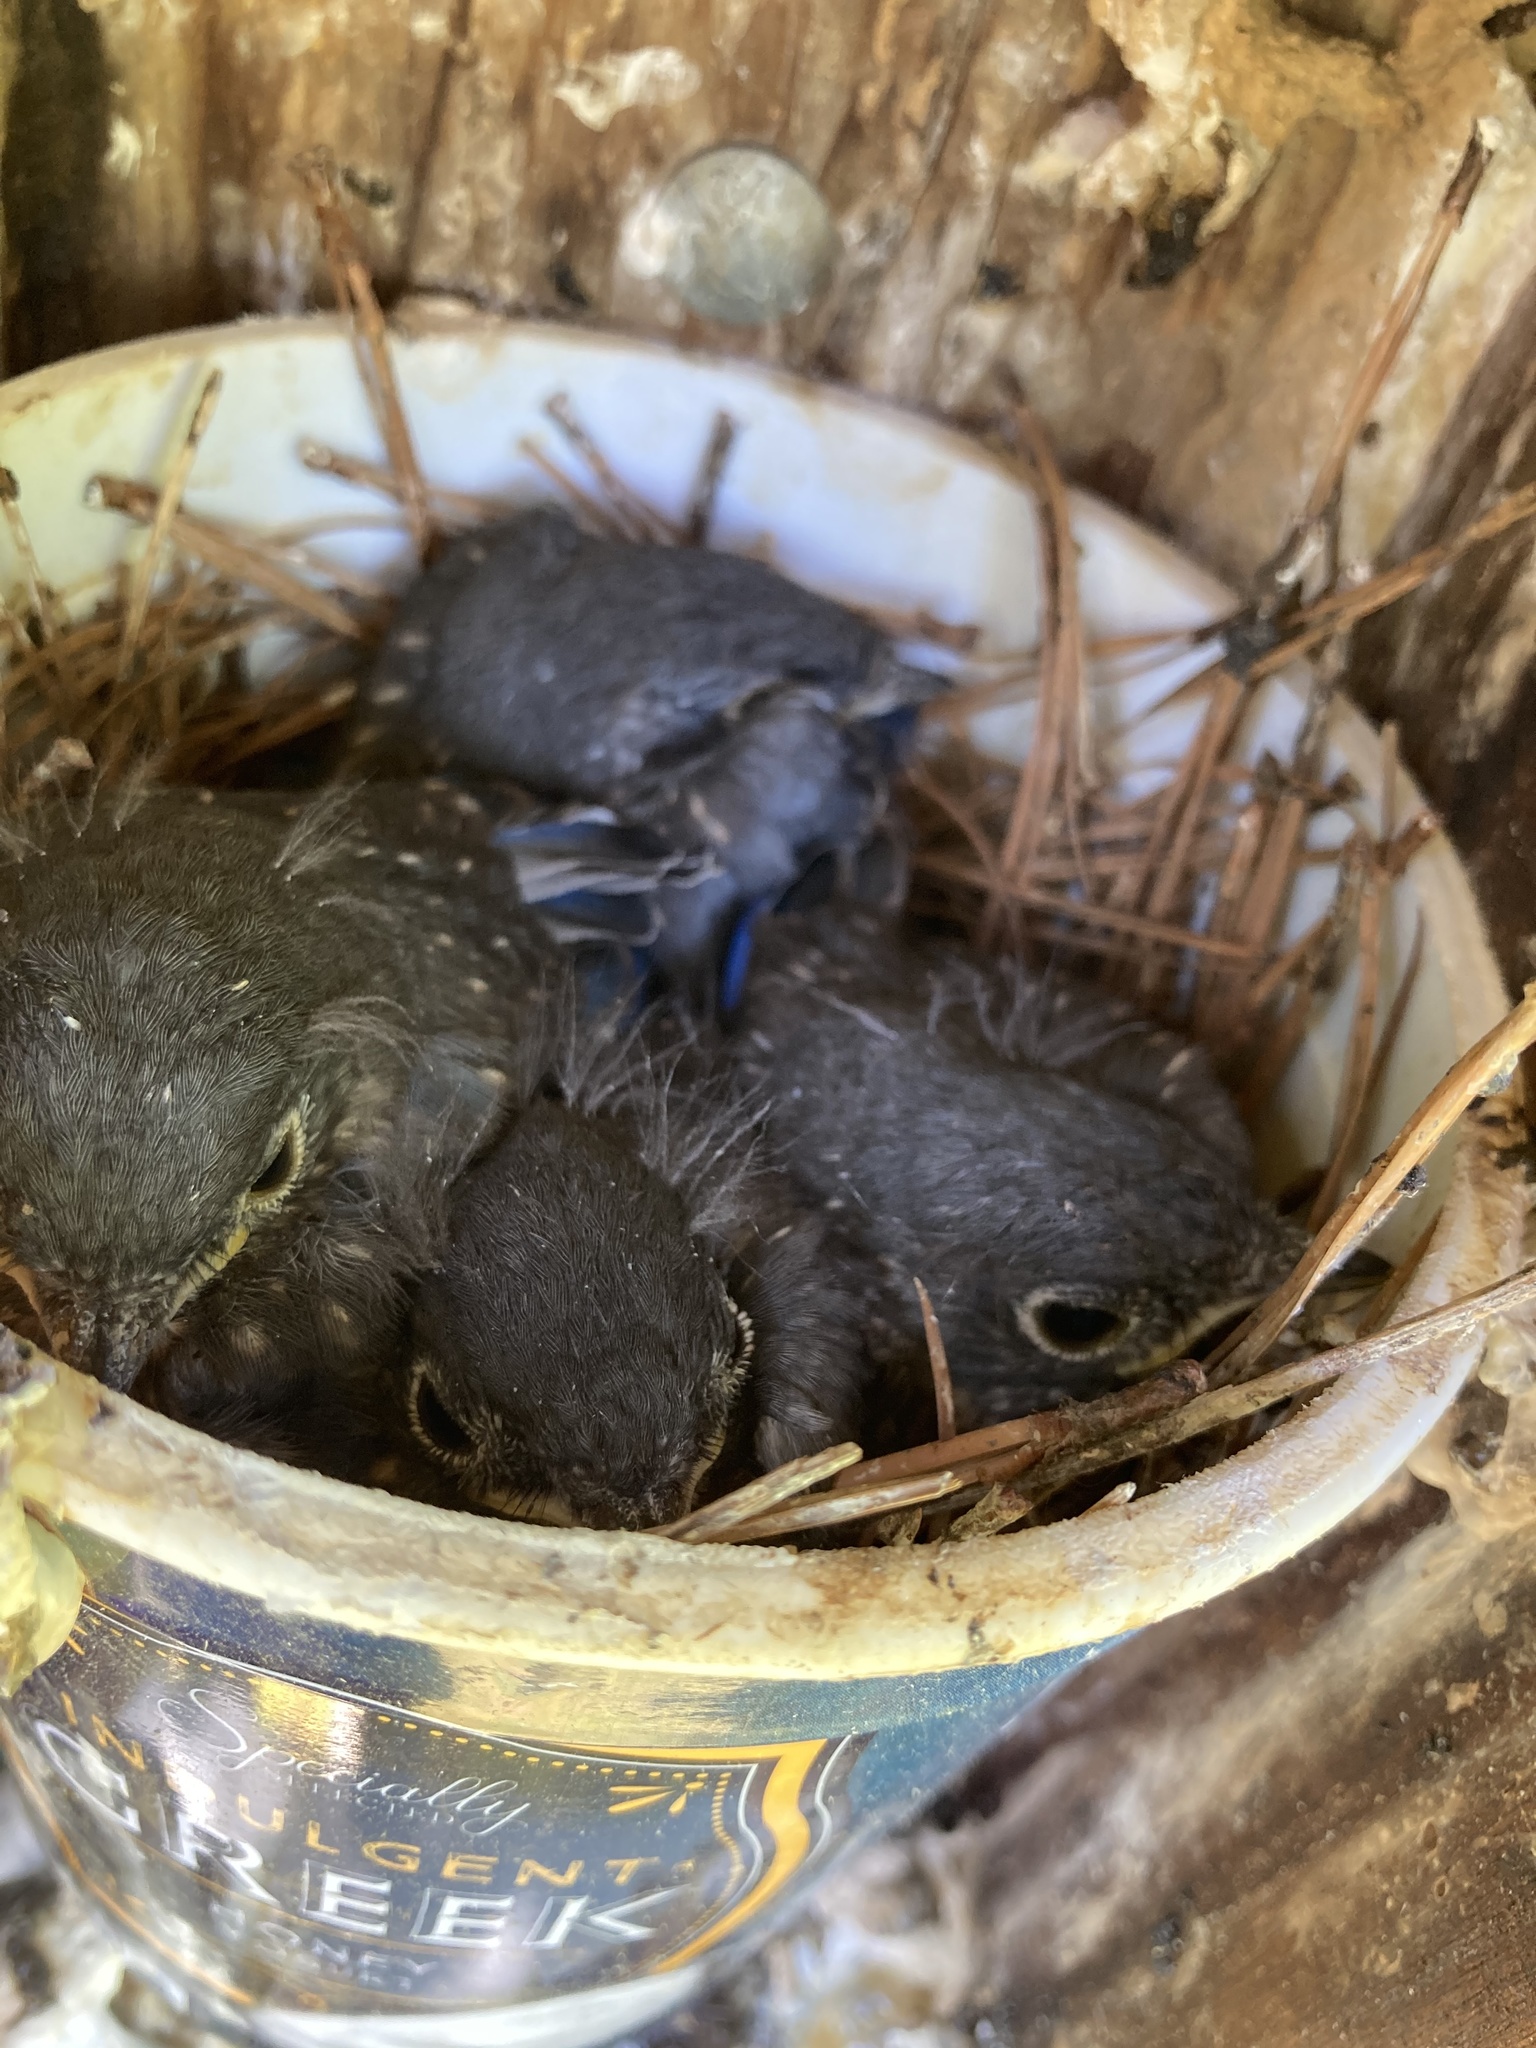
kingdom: Animalia
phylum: Chordata
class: Aves
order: Passeriformes
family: Turdidae
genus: Sialia
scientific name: Sialia sialis
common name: Eastern bluebird
